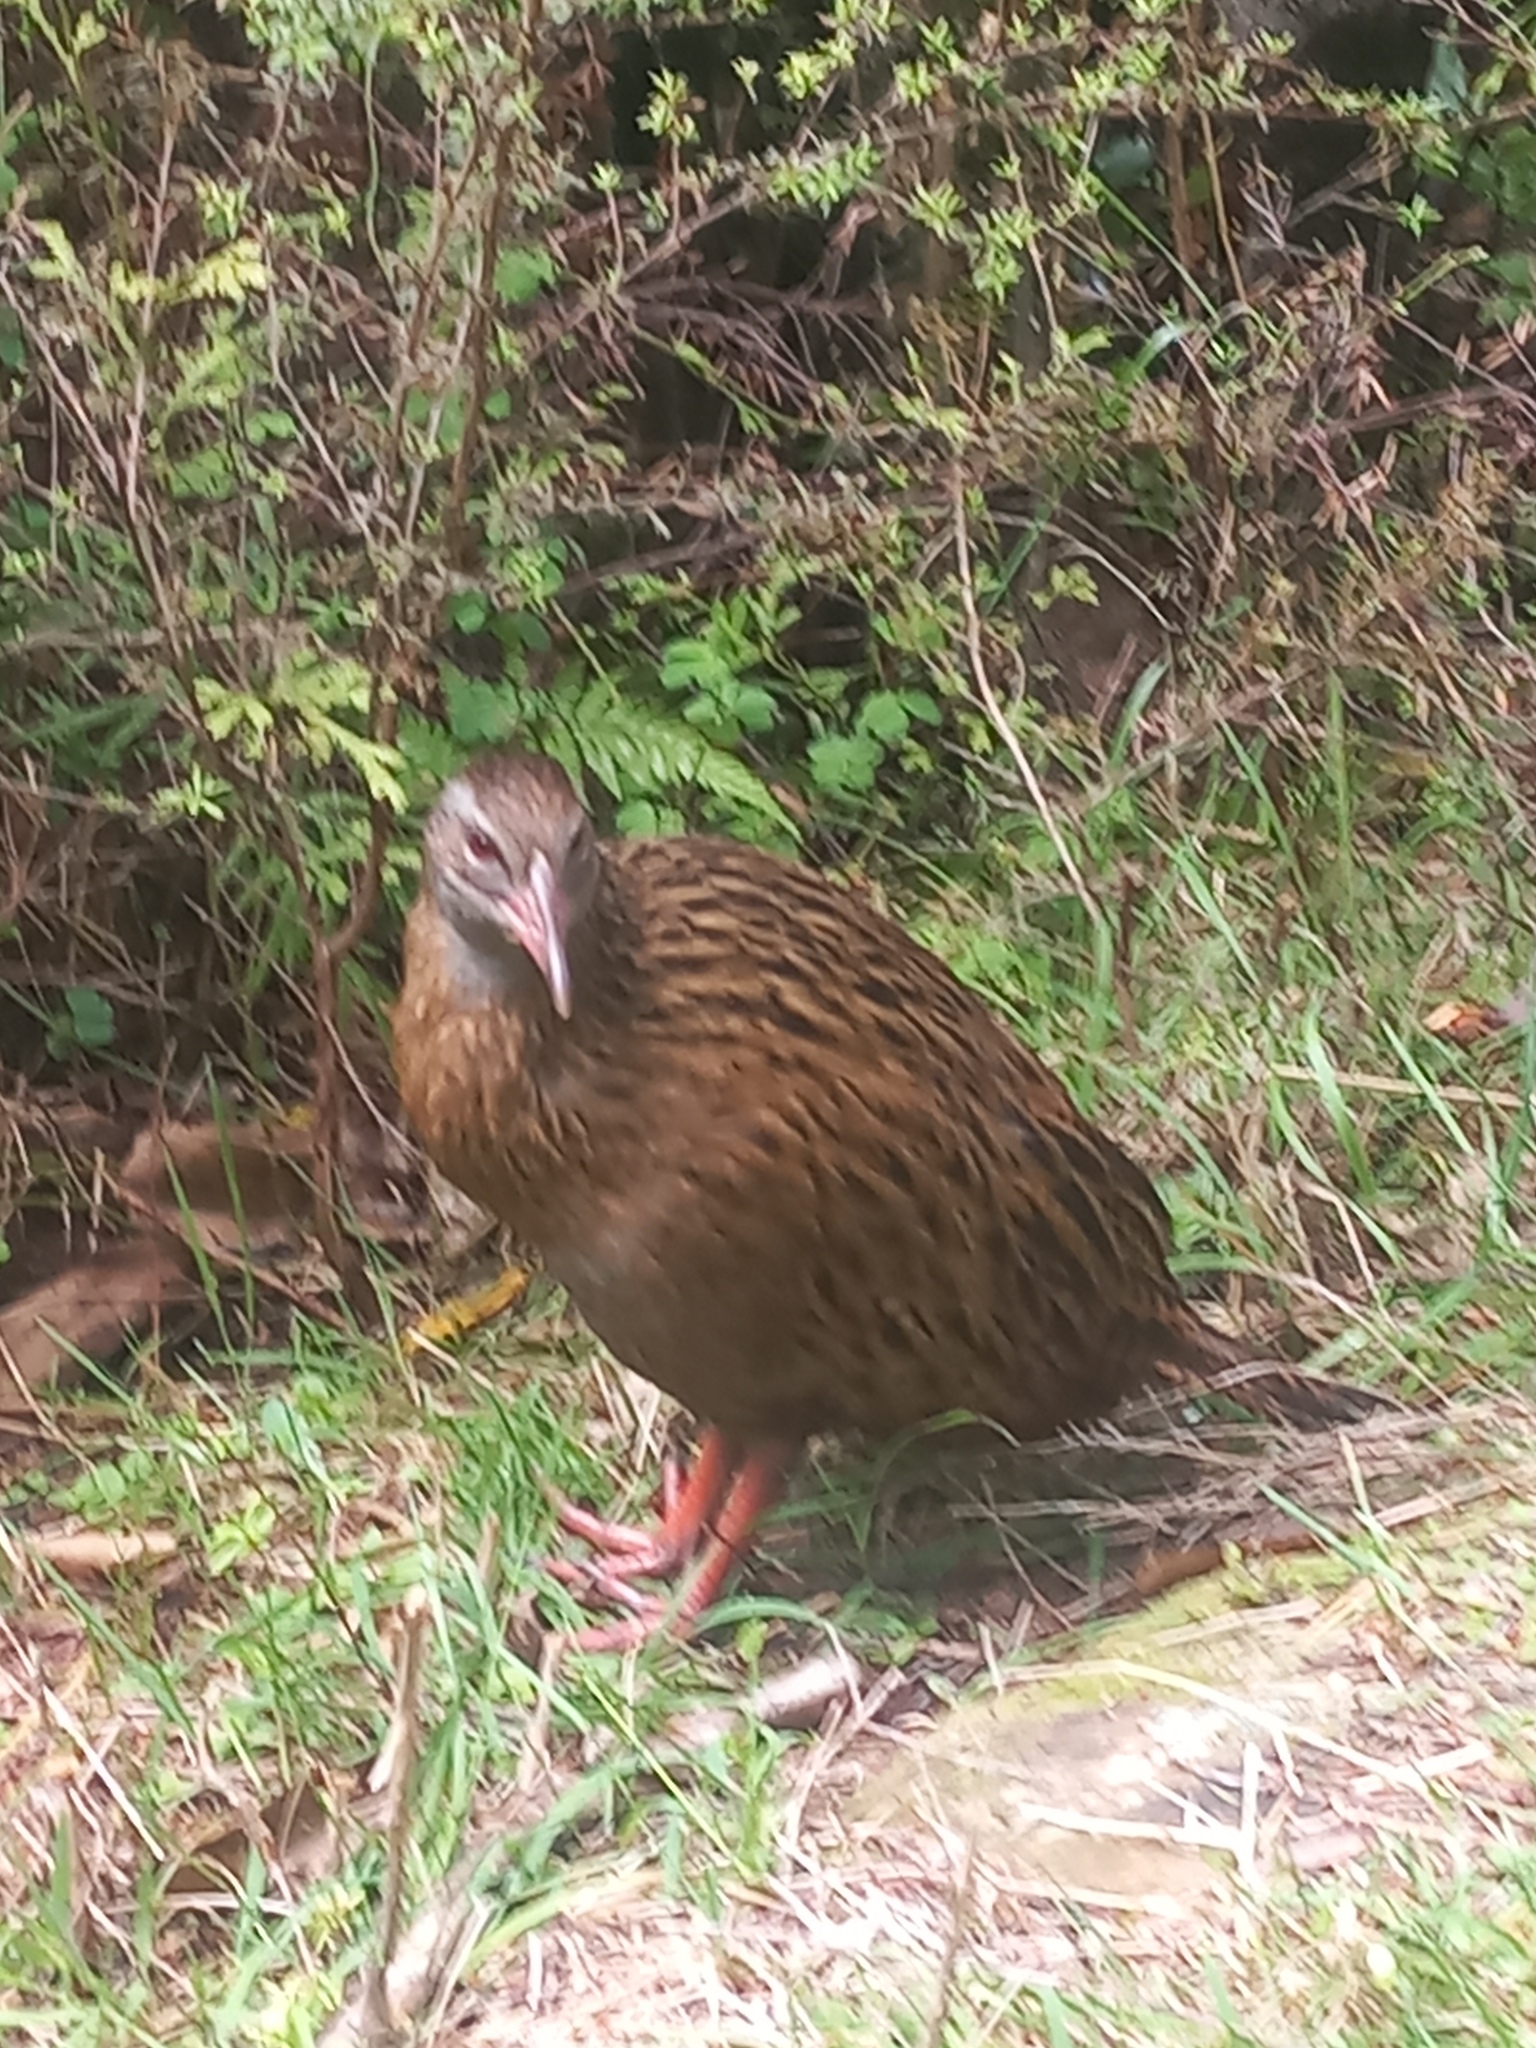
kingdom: Animalia
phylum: Chordata
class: Aves
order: Gruiformes
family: Rallidae
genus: Gallirallus
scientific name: Gallirallus australis
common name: Weka
